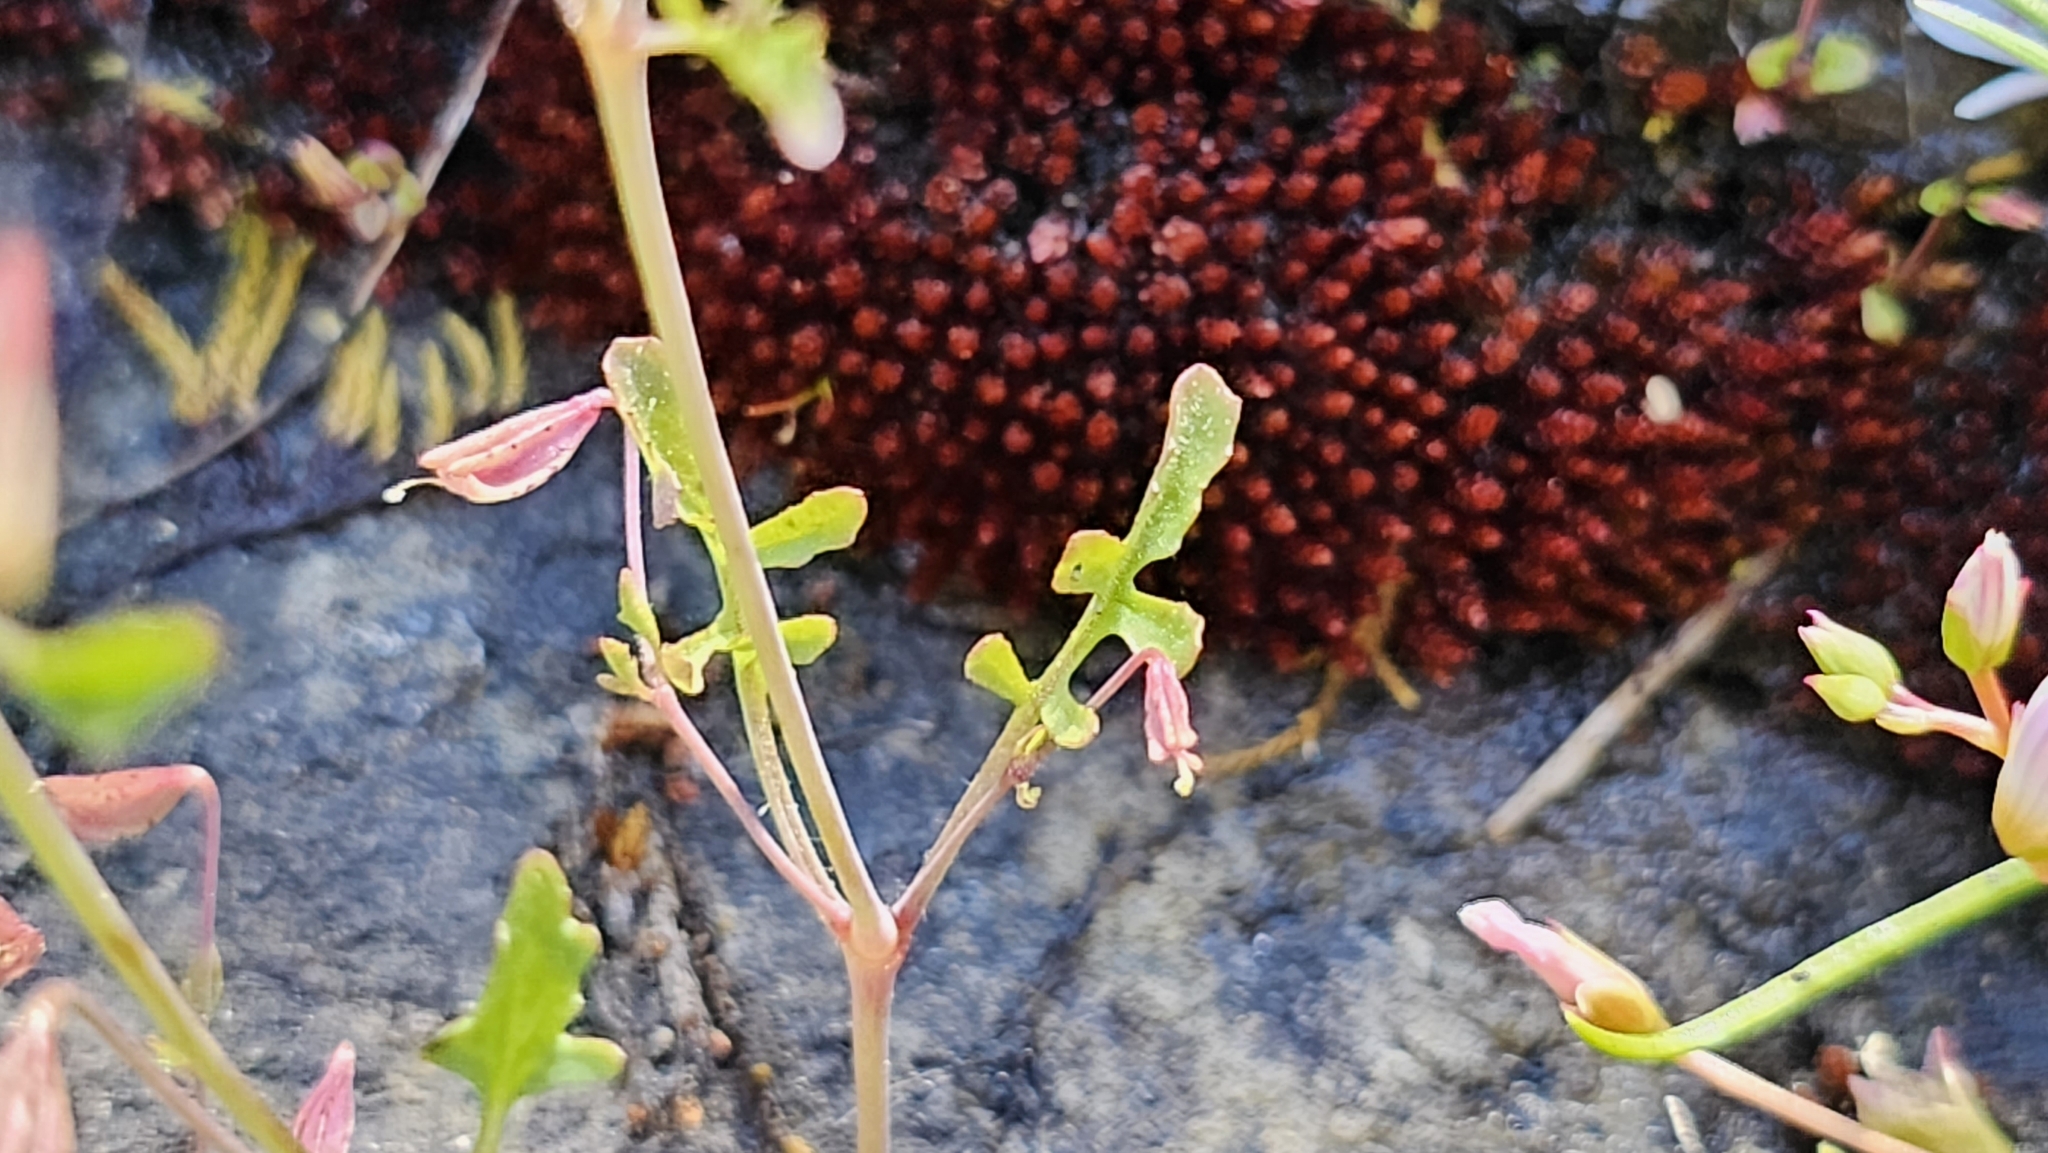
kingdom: Plantae
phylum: Tracheophyta
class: Magnoliopsida
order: Lamiales
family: Phrymaceae
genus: Erythranthe
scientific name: Erythranthe laciniata
